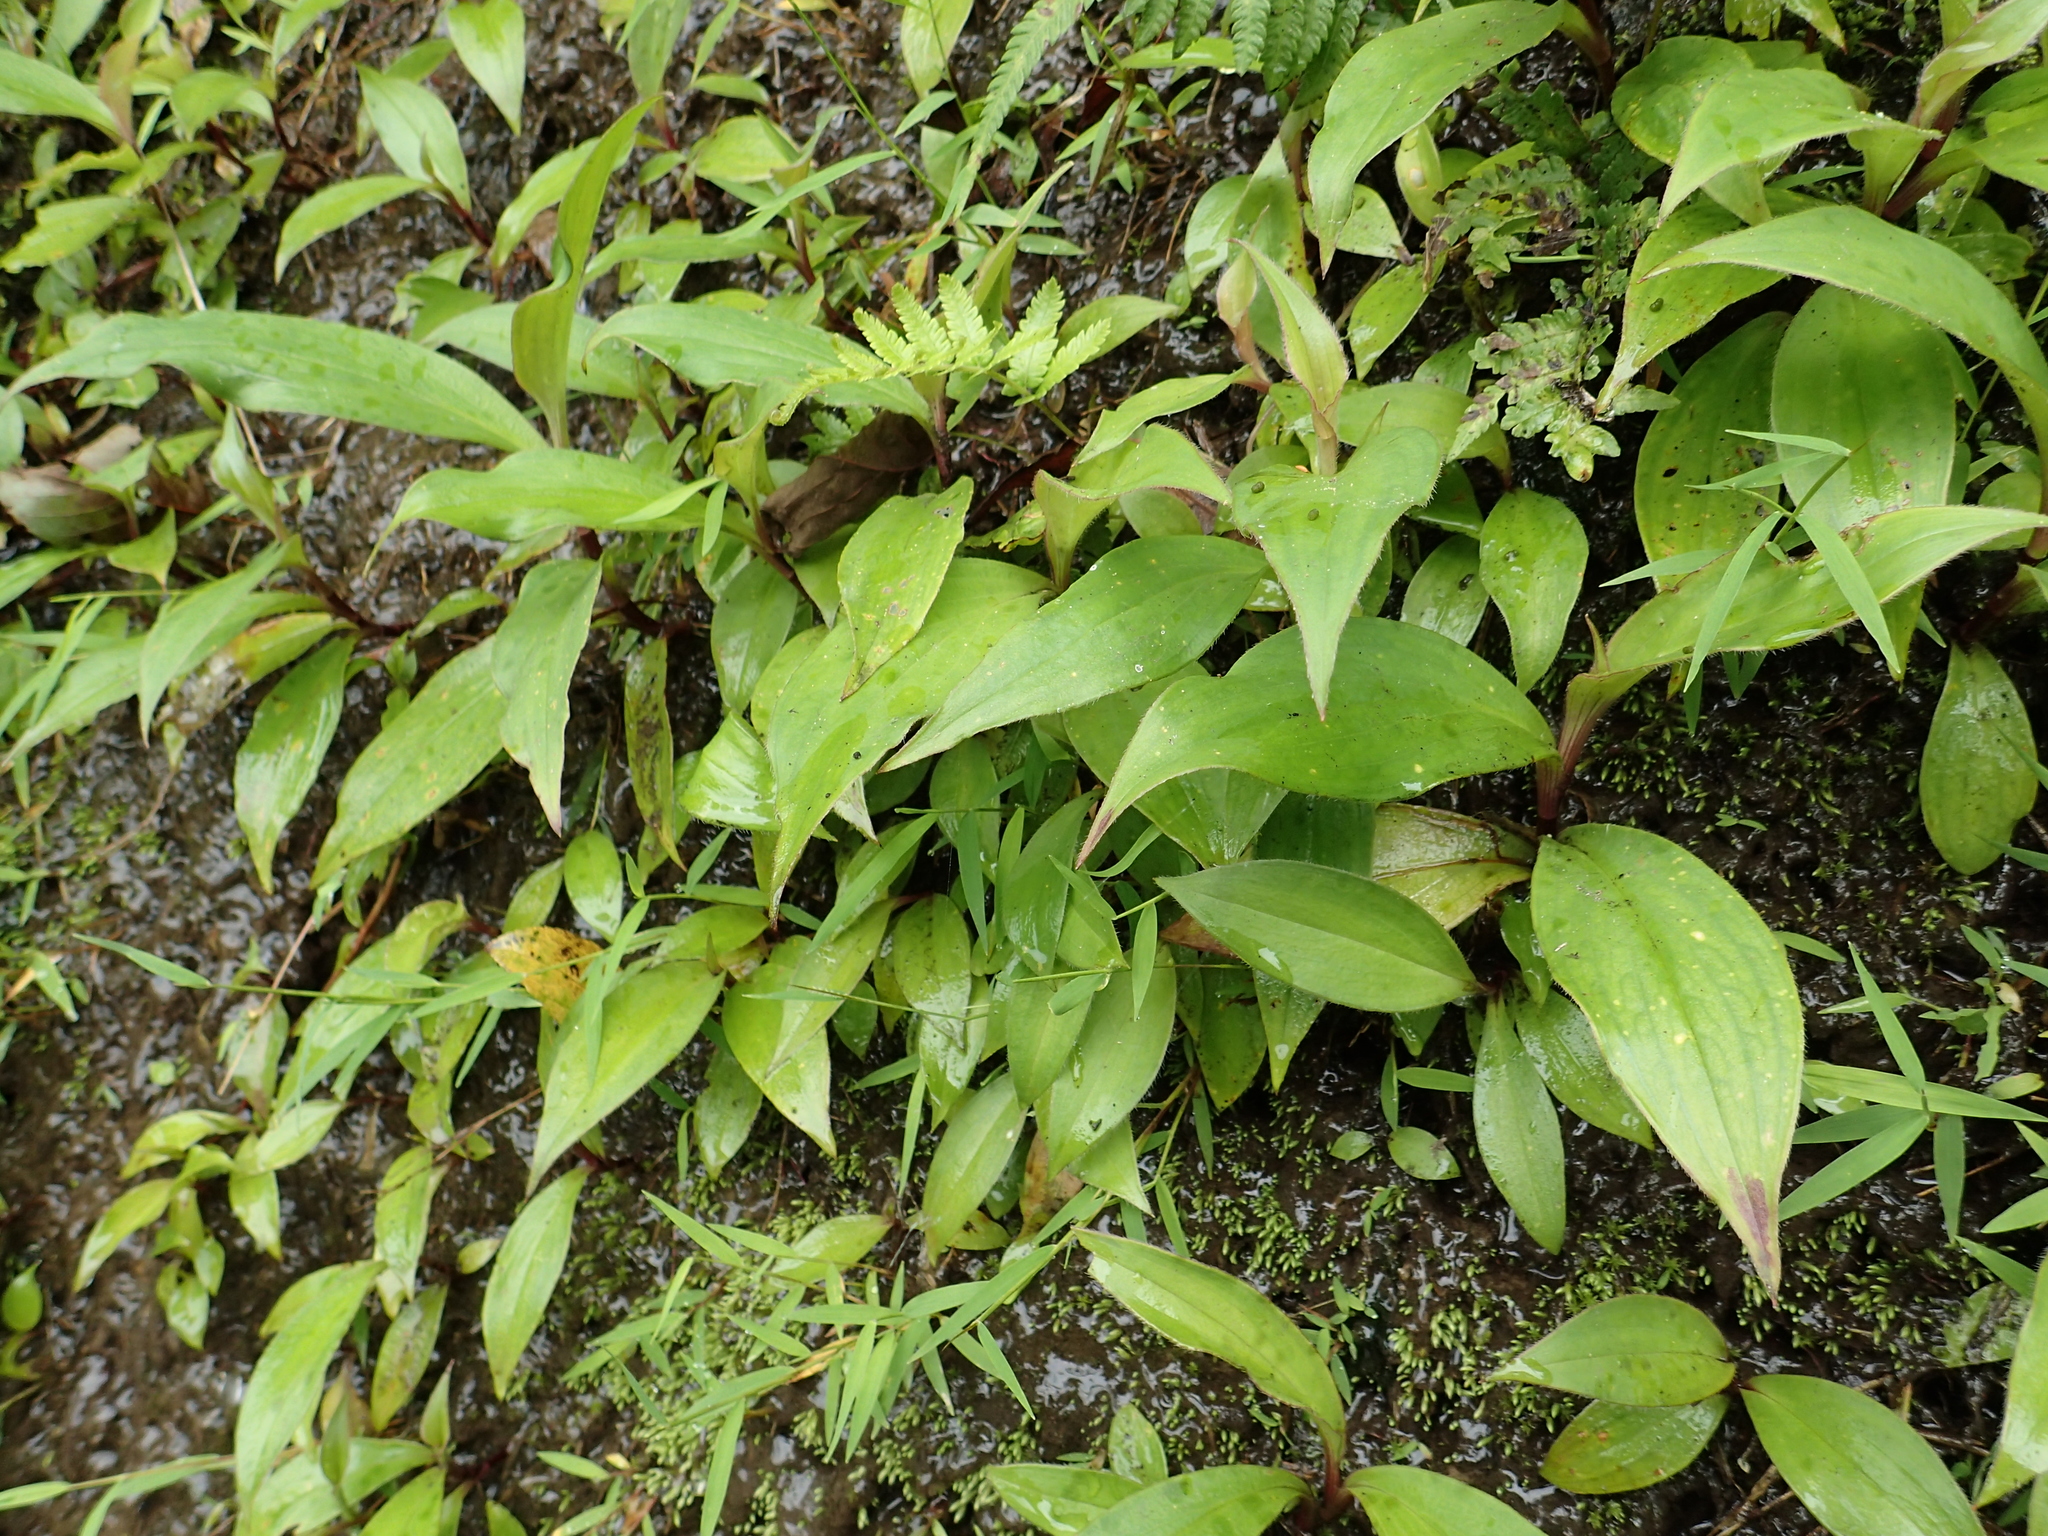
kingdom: Plantae
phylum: Tracheophyta
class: Liliopsida
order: Liliales
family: Liliaceae
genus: Tricyrtis
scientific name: Tricyrtis formosana
